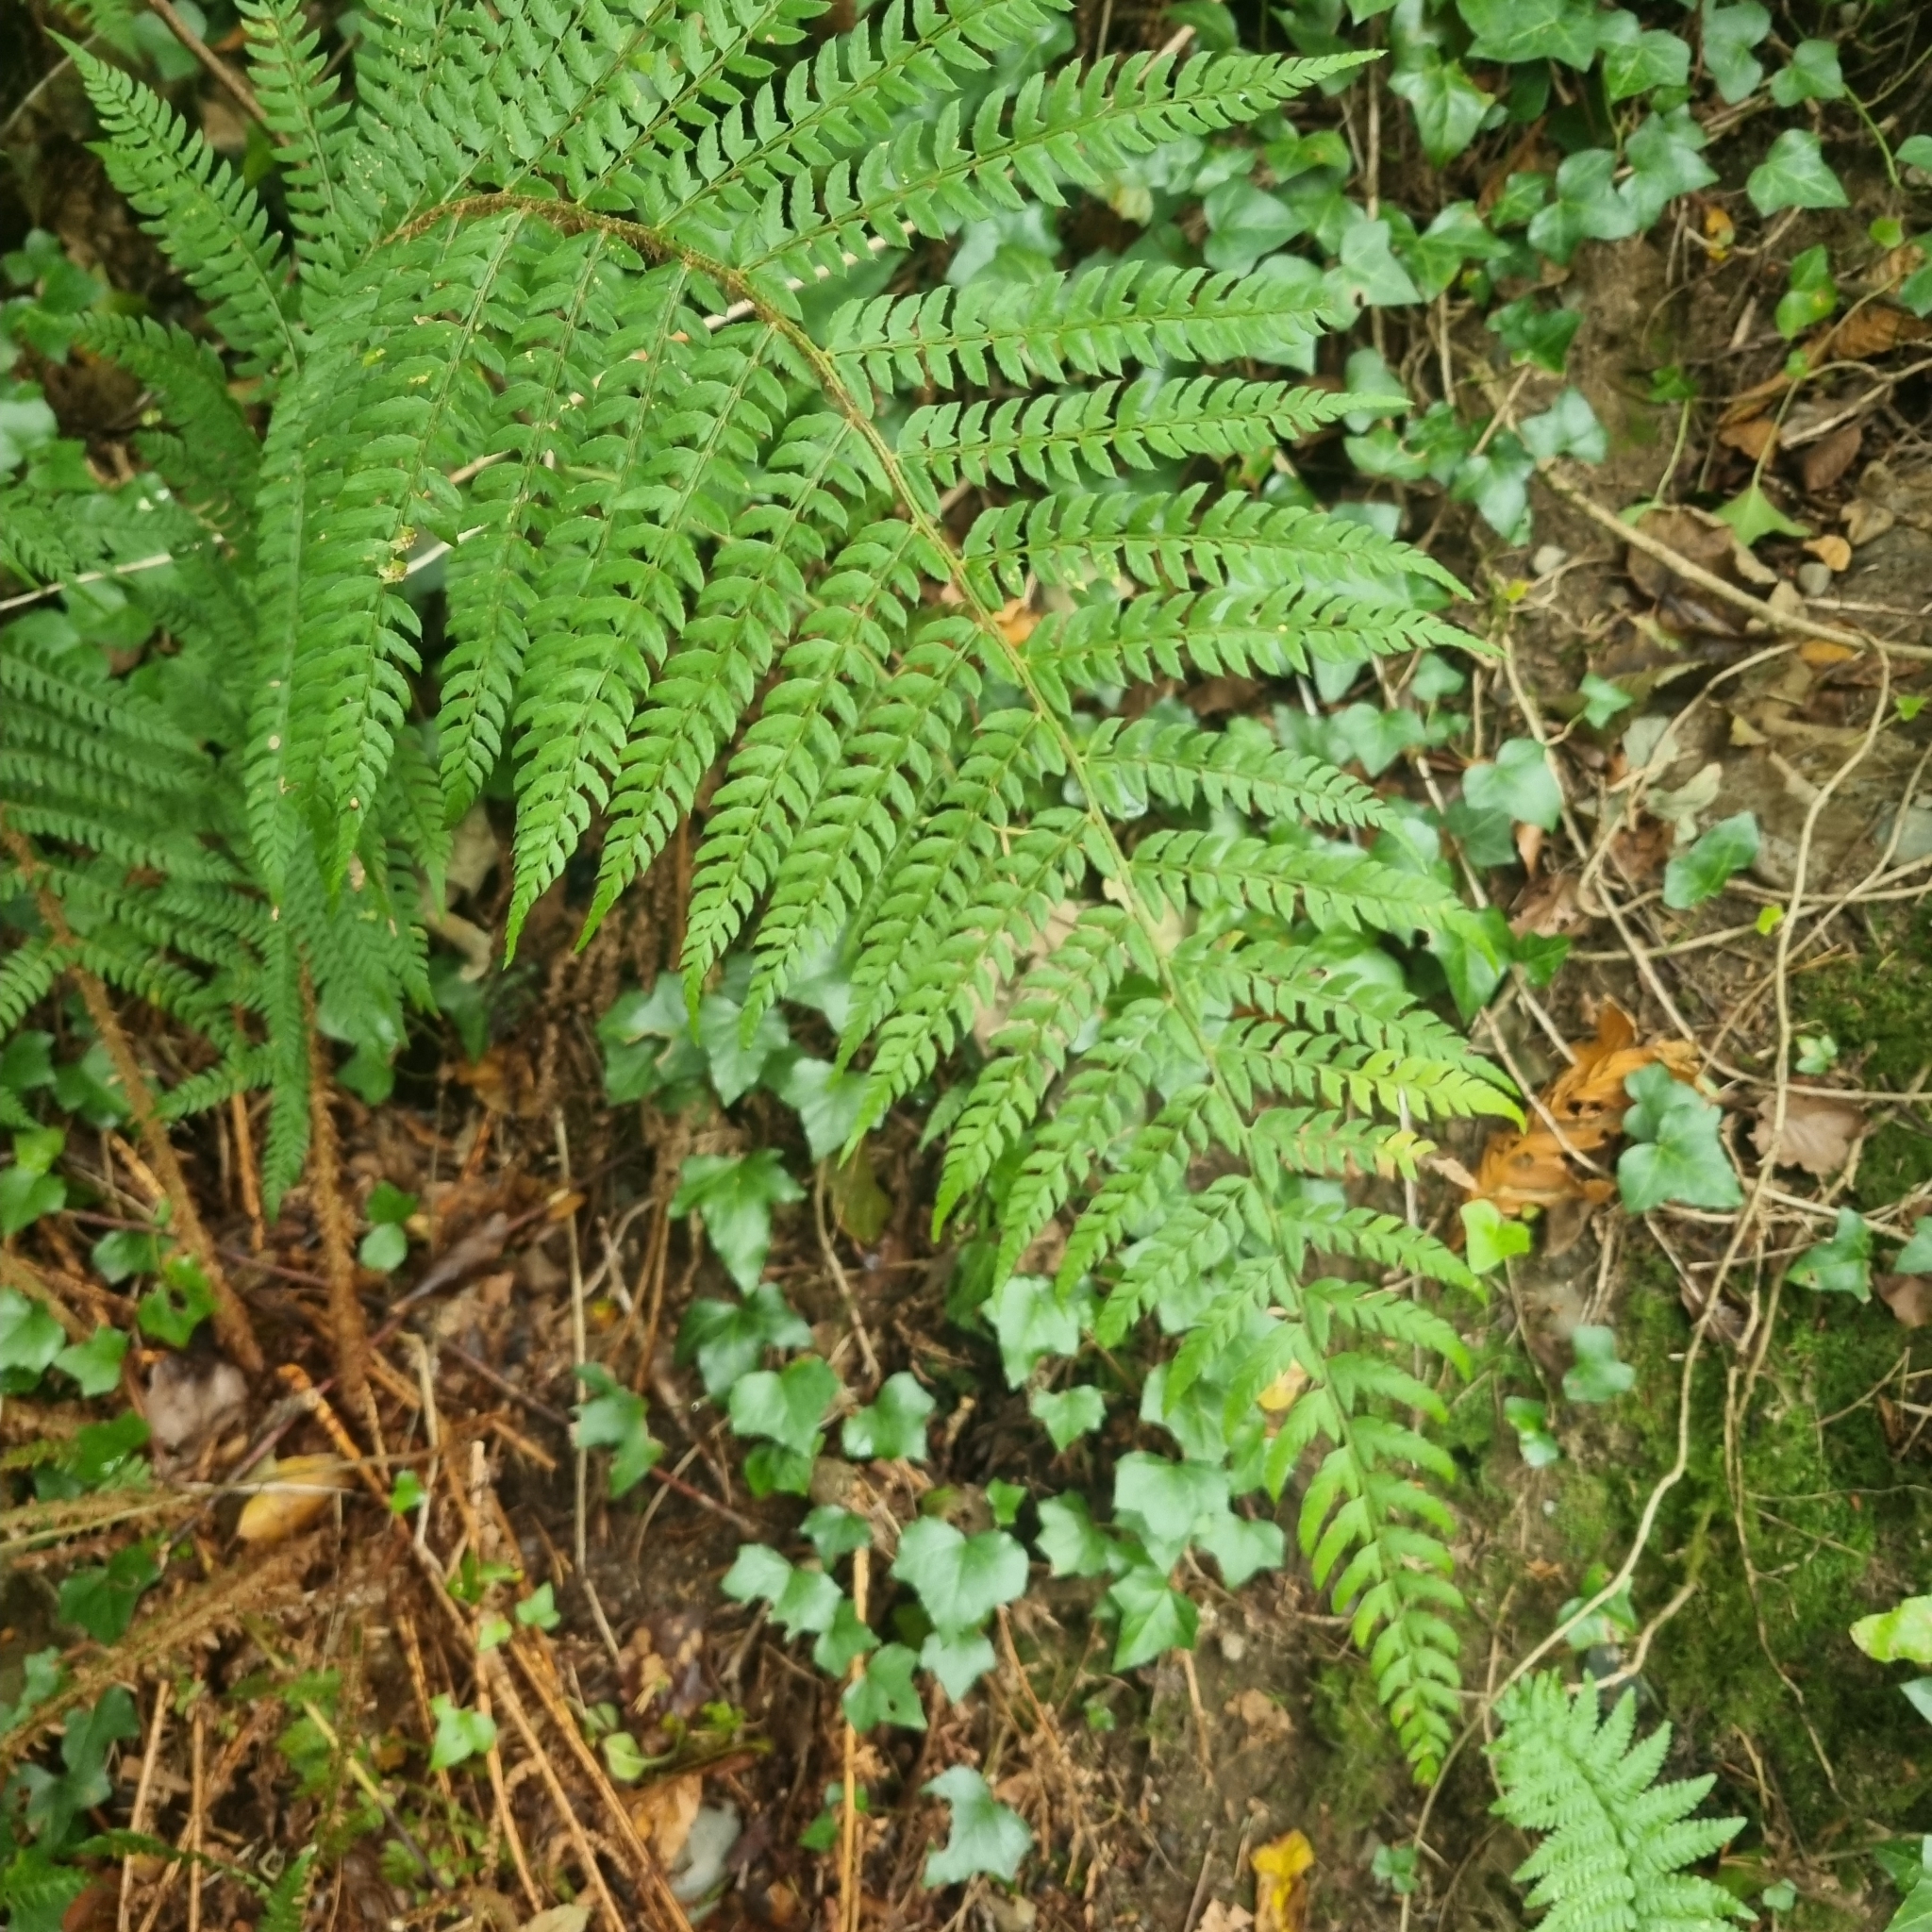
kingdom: Plantae
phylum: Tracheophyta
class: Polypodiopsida
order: Polypodiales
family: Dryopteridaceae
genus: Polystichum
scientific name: Polystichum setiferum
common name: Soft shield-fern
